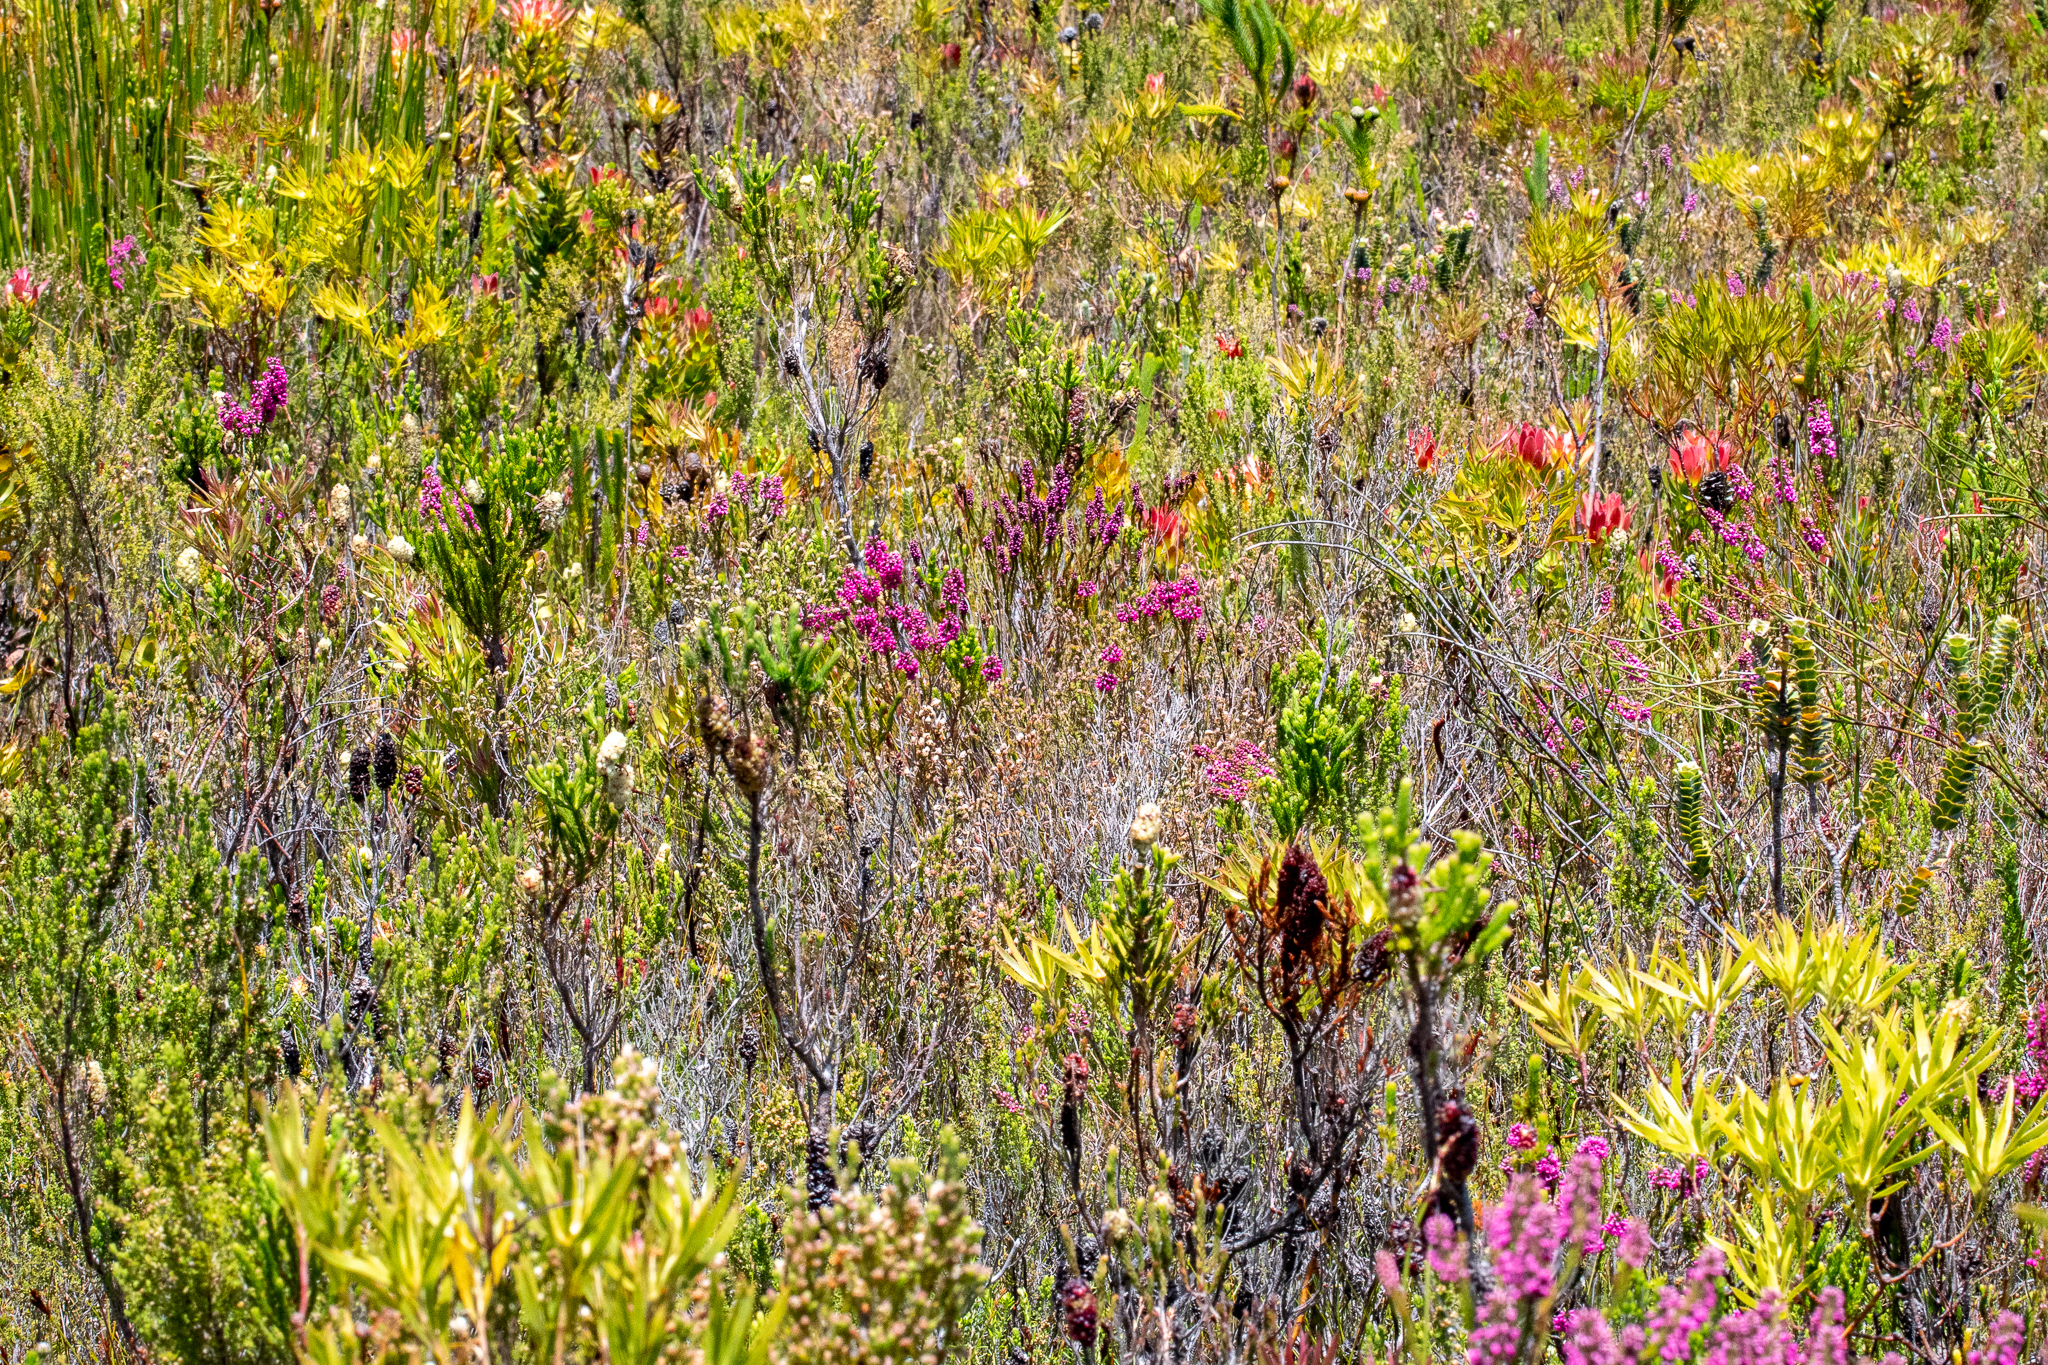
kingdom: Plantae
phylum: Tracheophyta
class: Magnoliopsida
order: Ericales
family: Ericaceae
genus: Erica
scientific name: Erica pulchella
